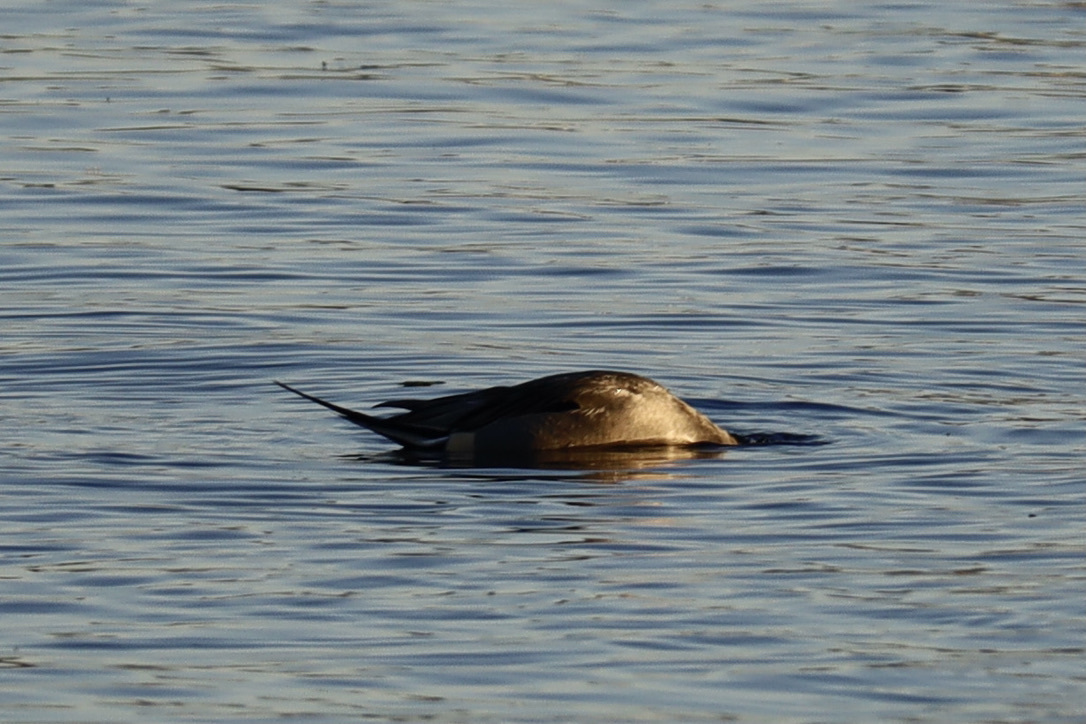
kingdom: Animalia
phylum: Chordata
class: Aves
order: Anseriformes
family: Anatidae
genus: Anas
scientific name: Anas acuta
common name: Northern pintail
